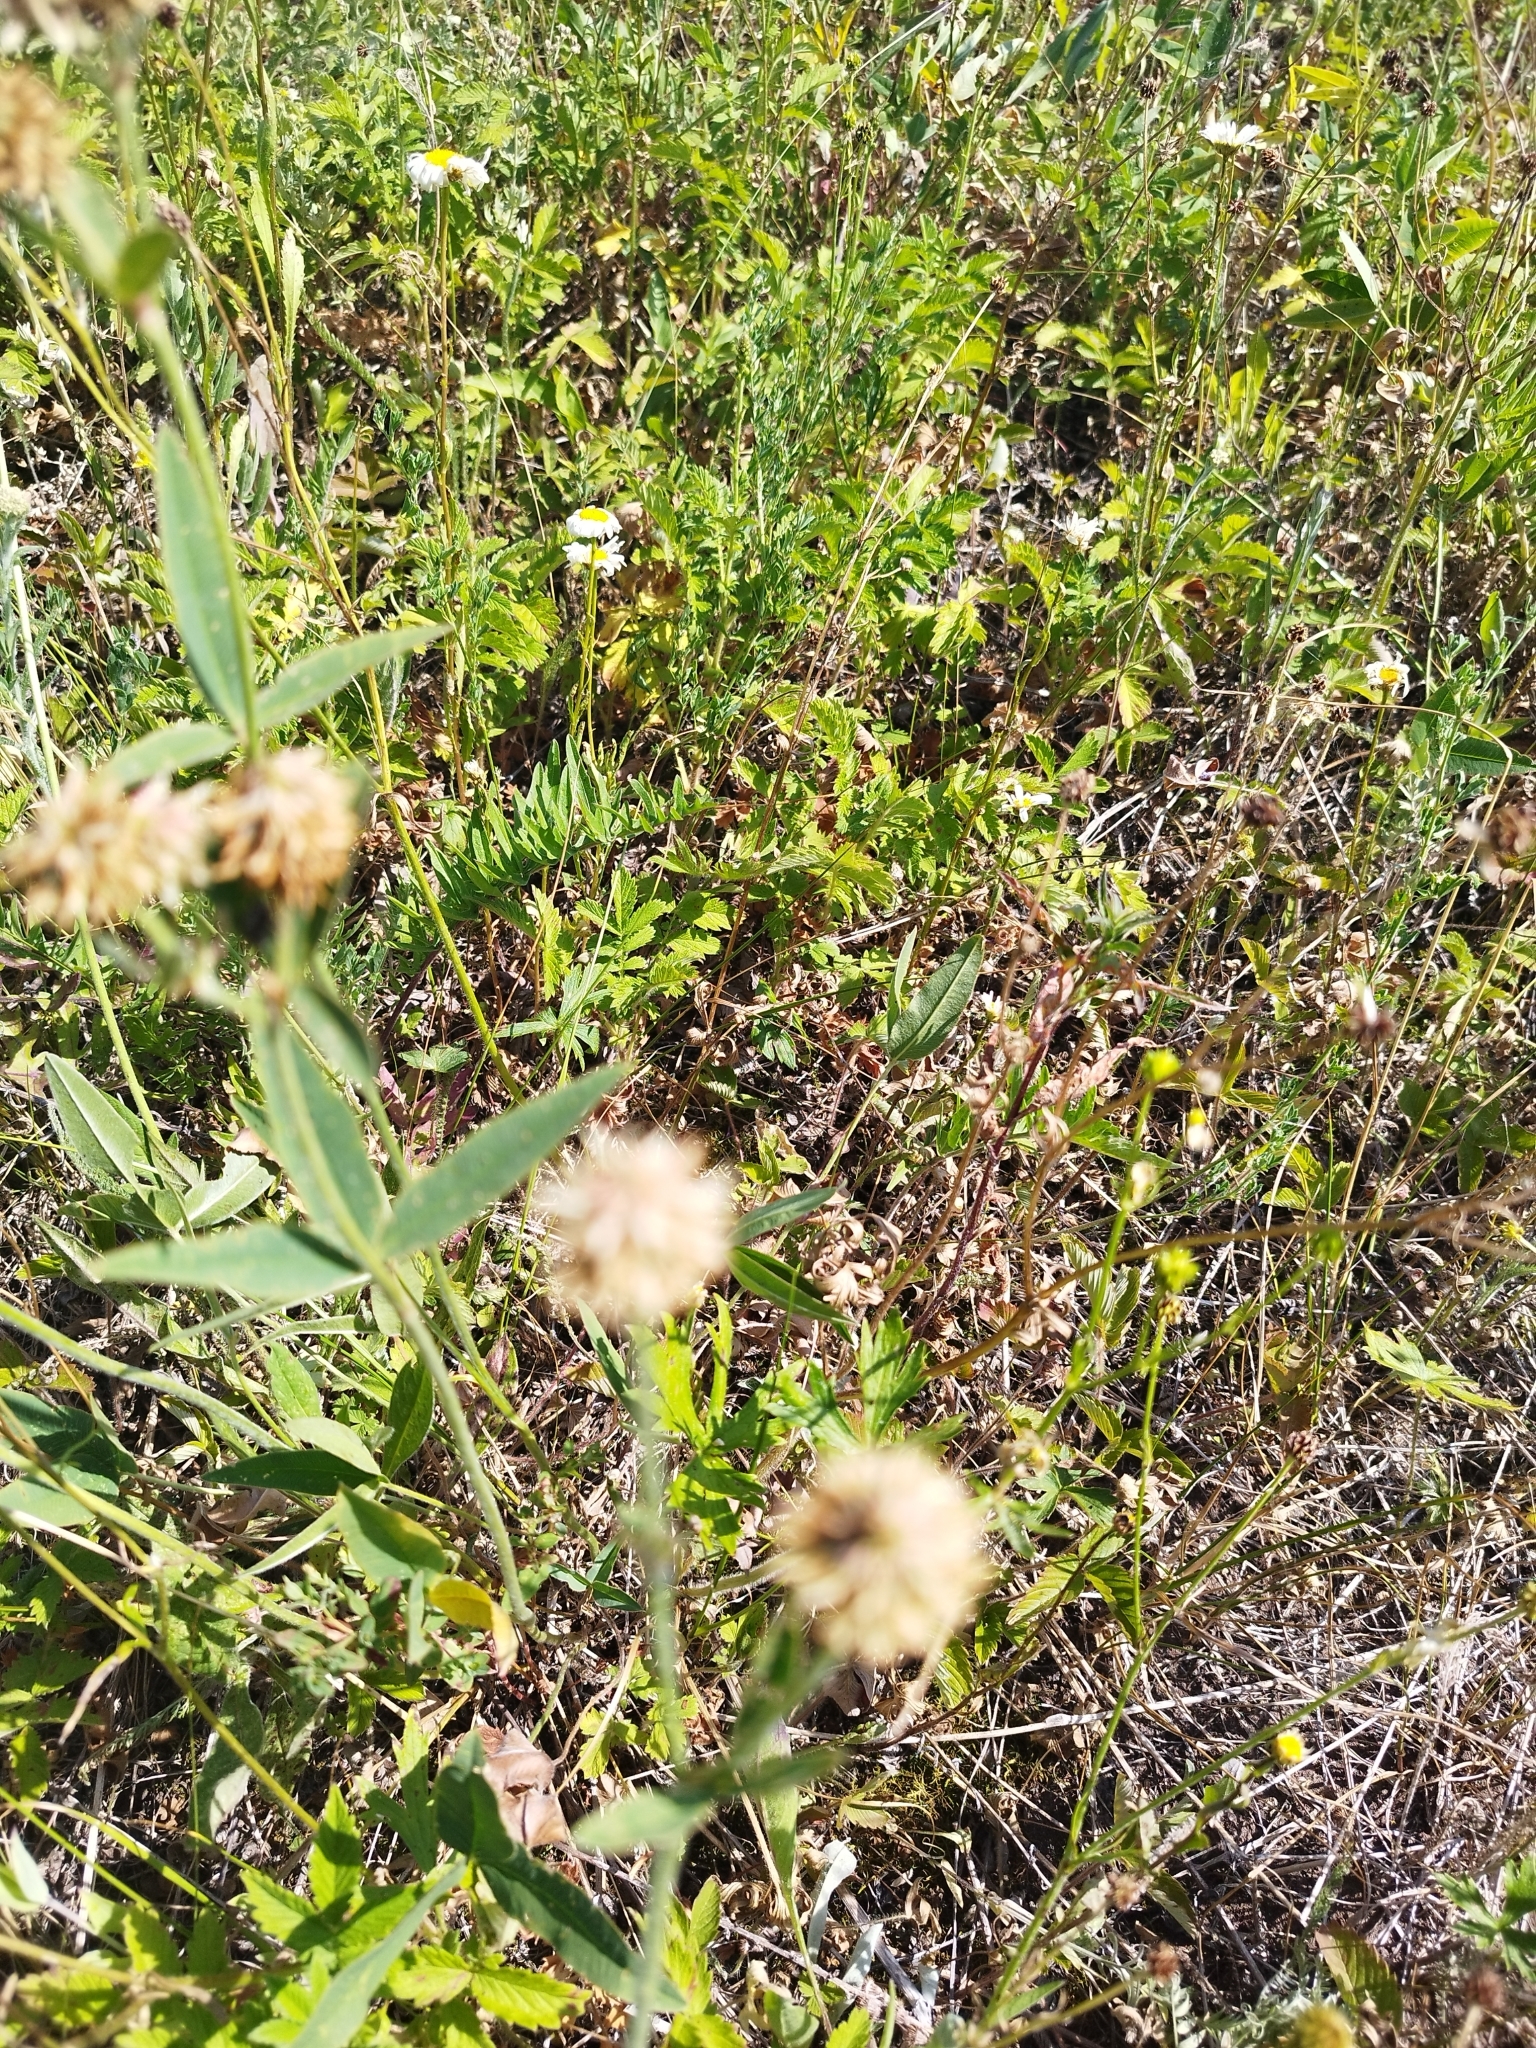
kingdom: Plantae
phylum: Tracheophyta
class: Magnoliopsida
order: Fabales
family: Fabaceae
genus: Trifolium
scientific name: Trifolium montanum
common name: Mountain clover
